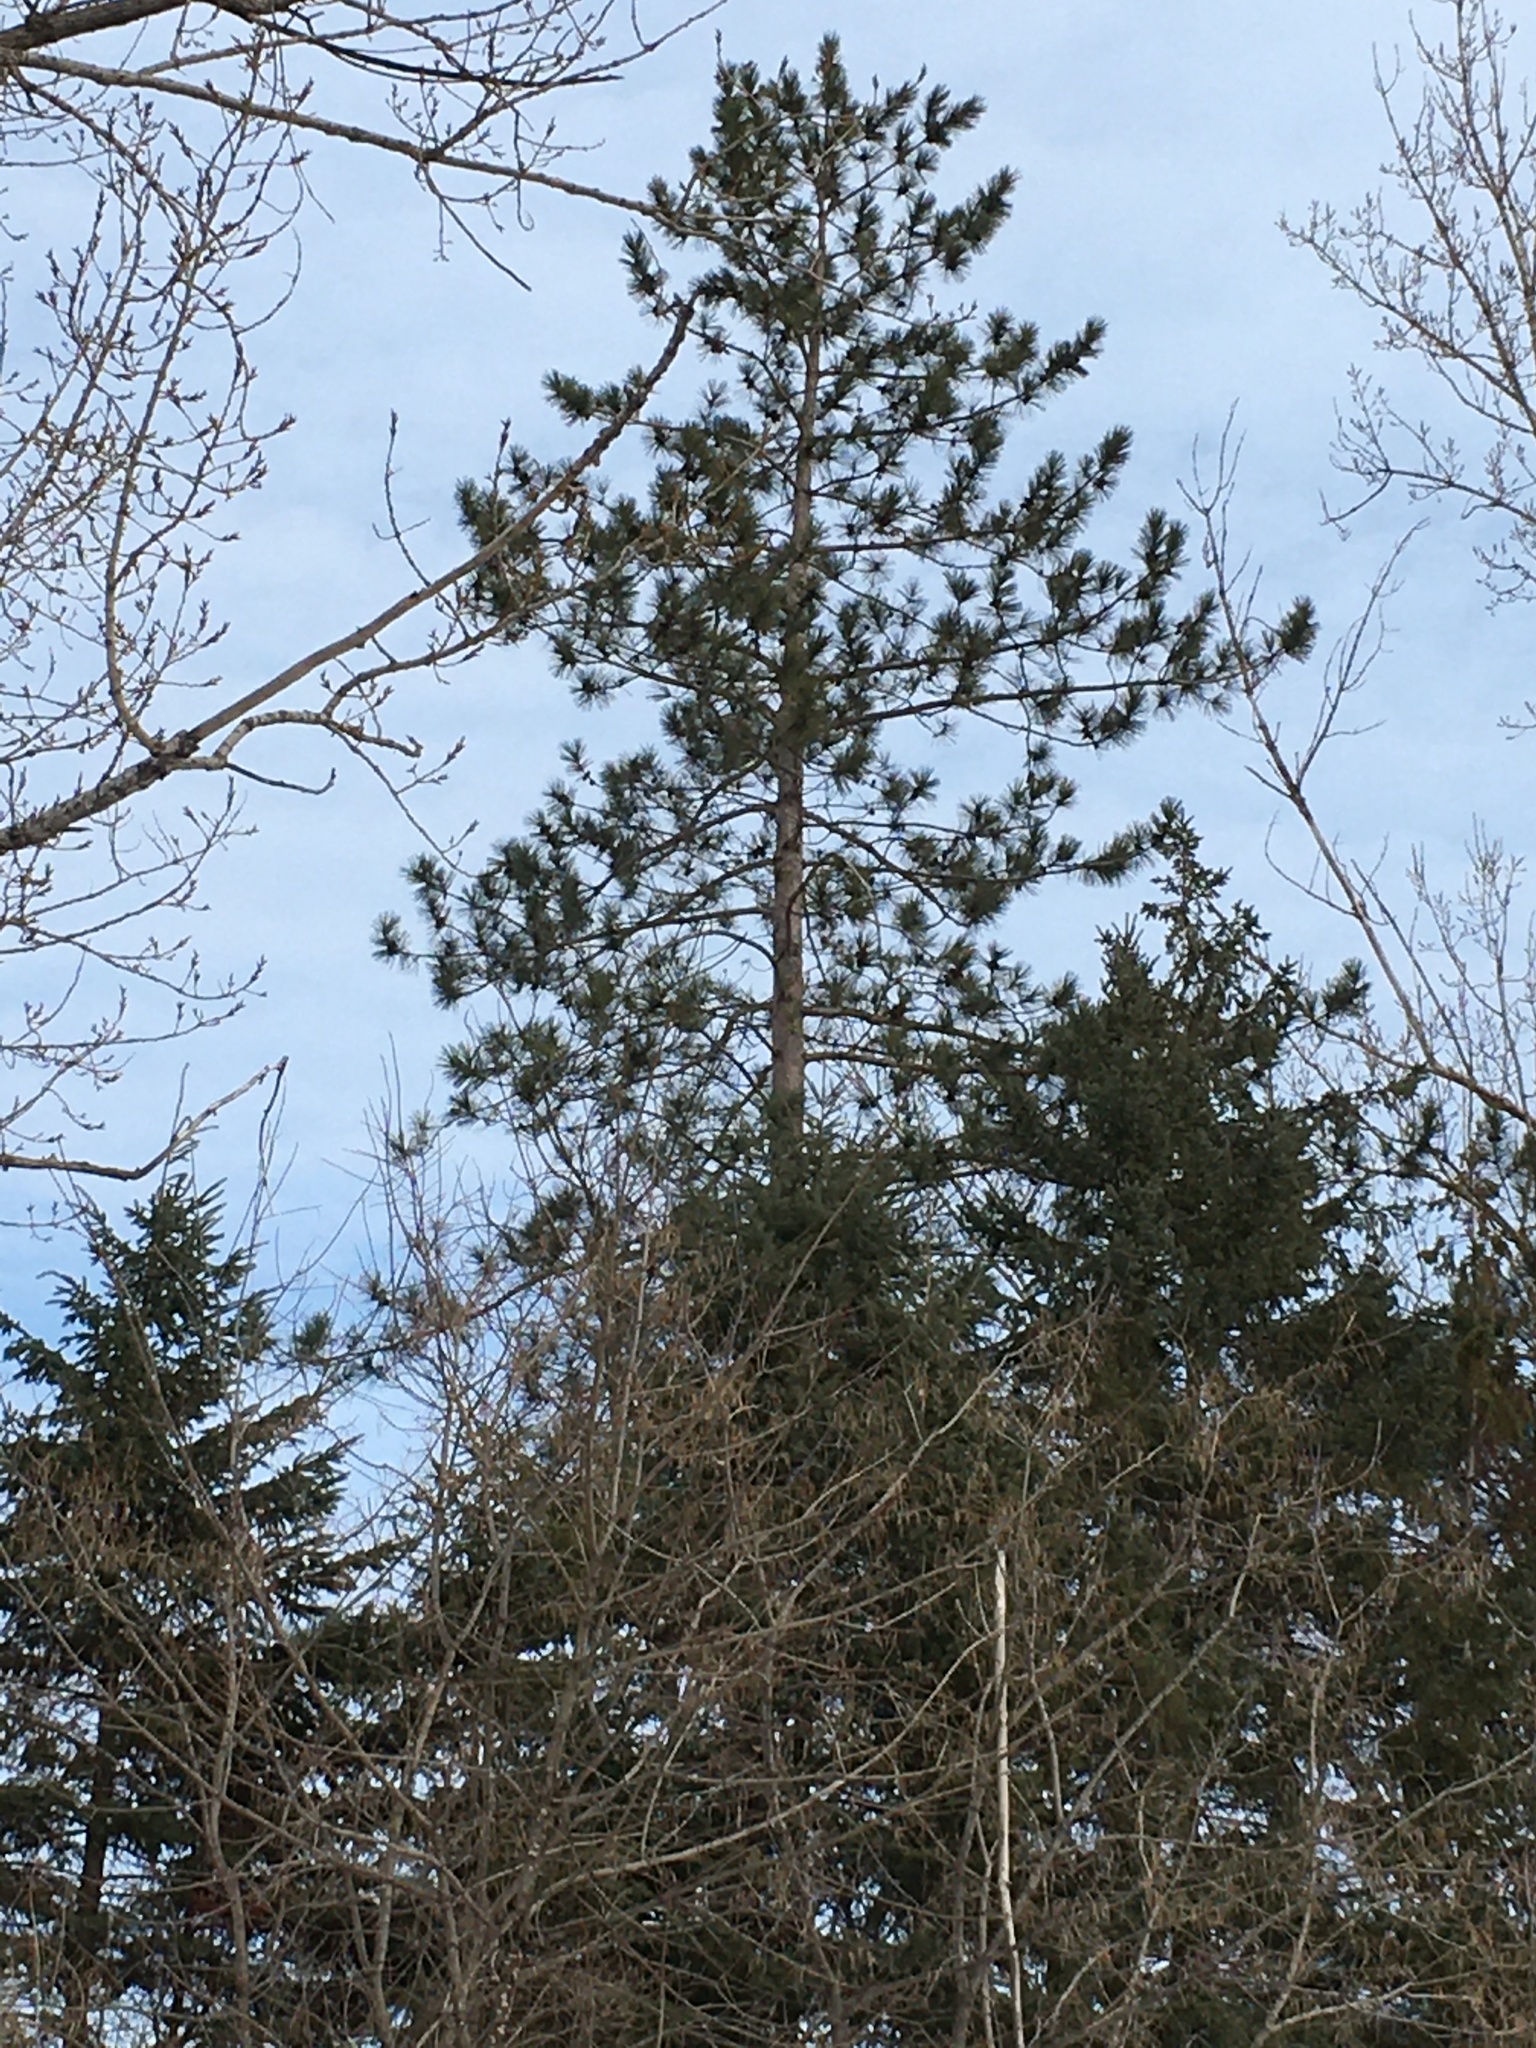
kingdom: Plantae
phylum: Tracheophyta
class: Pinopsida
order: Pinales
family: Pinaceae
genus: Pinus
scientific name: Pinus resinosa
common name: Norway pine
